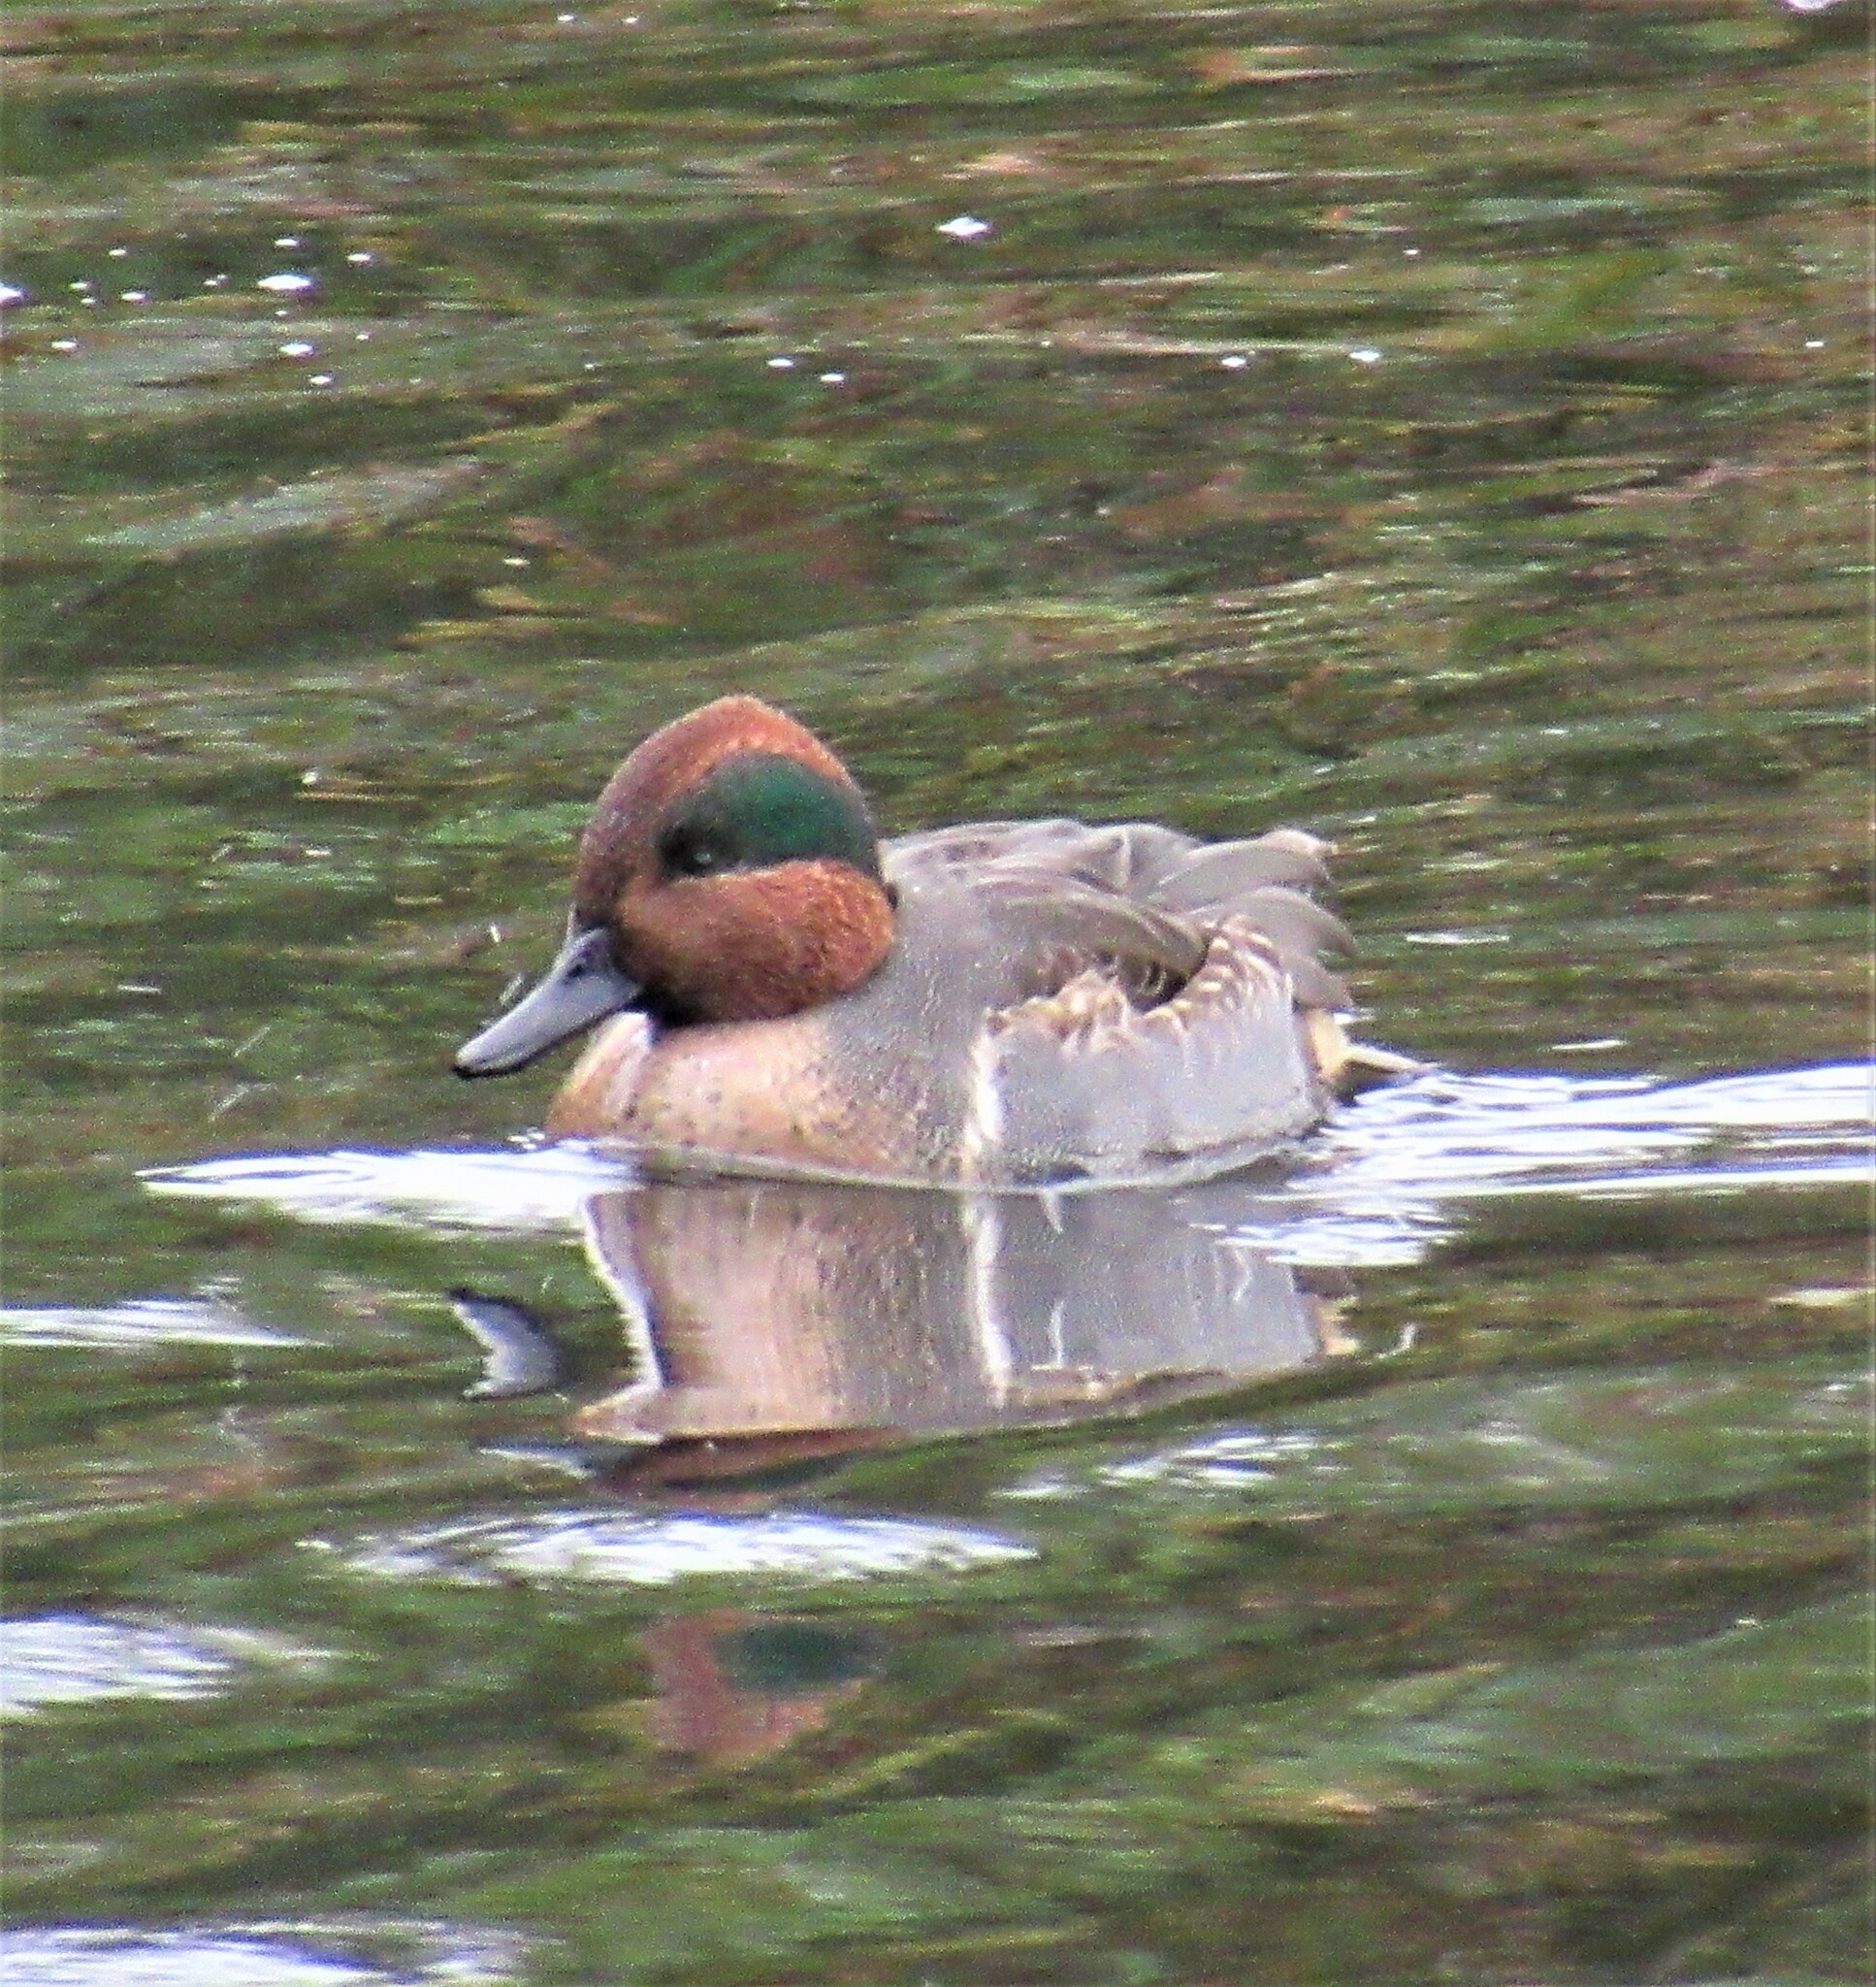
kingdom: Animalia
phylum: Chordata
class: Aves
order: Anseriformes
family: Anatidae
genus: Anas
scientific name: Anas crecca
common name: Eurasian teal
